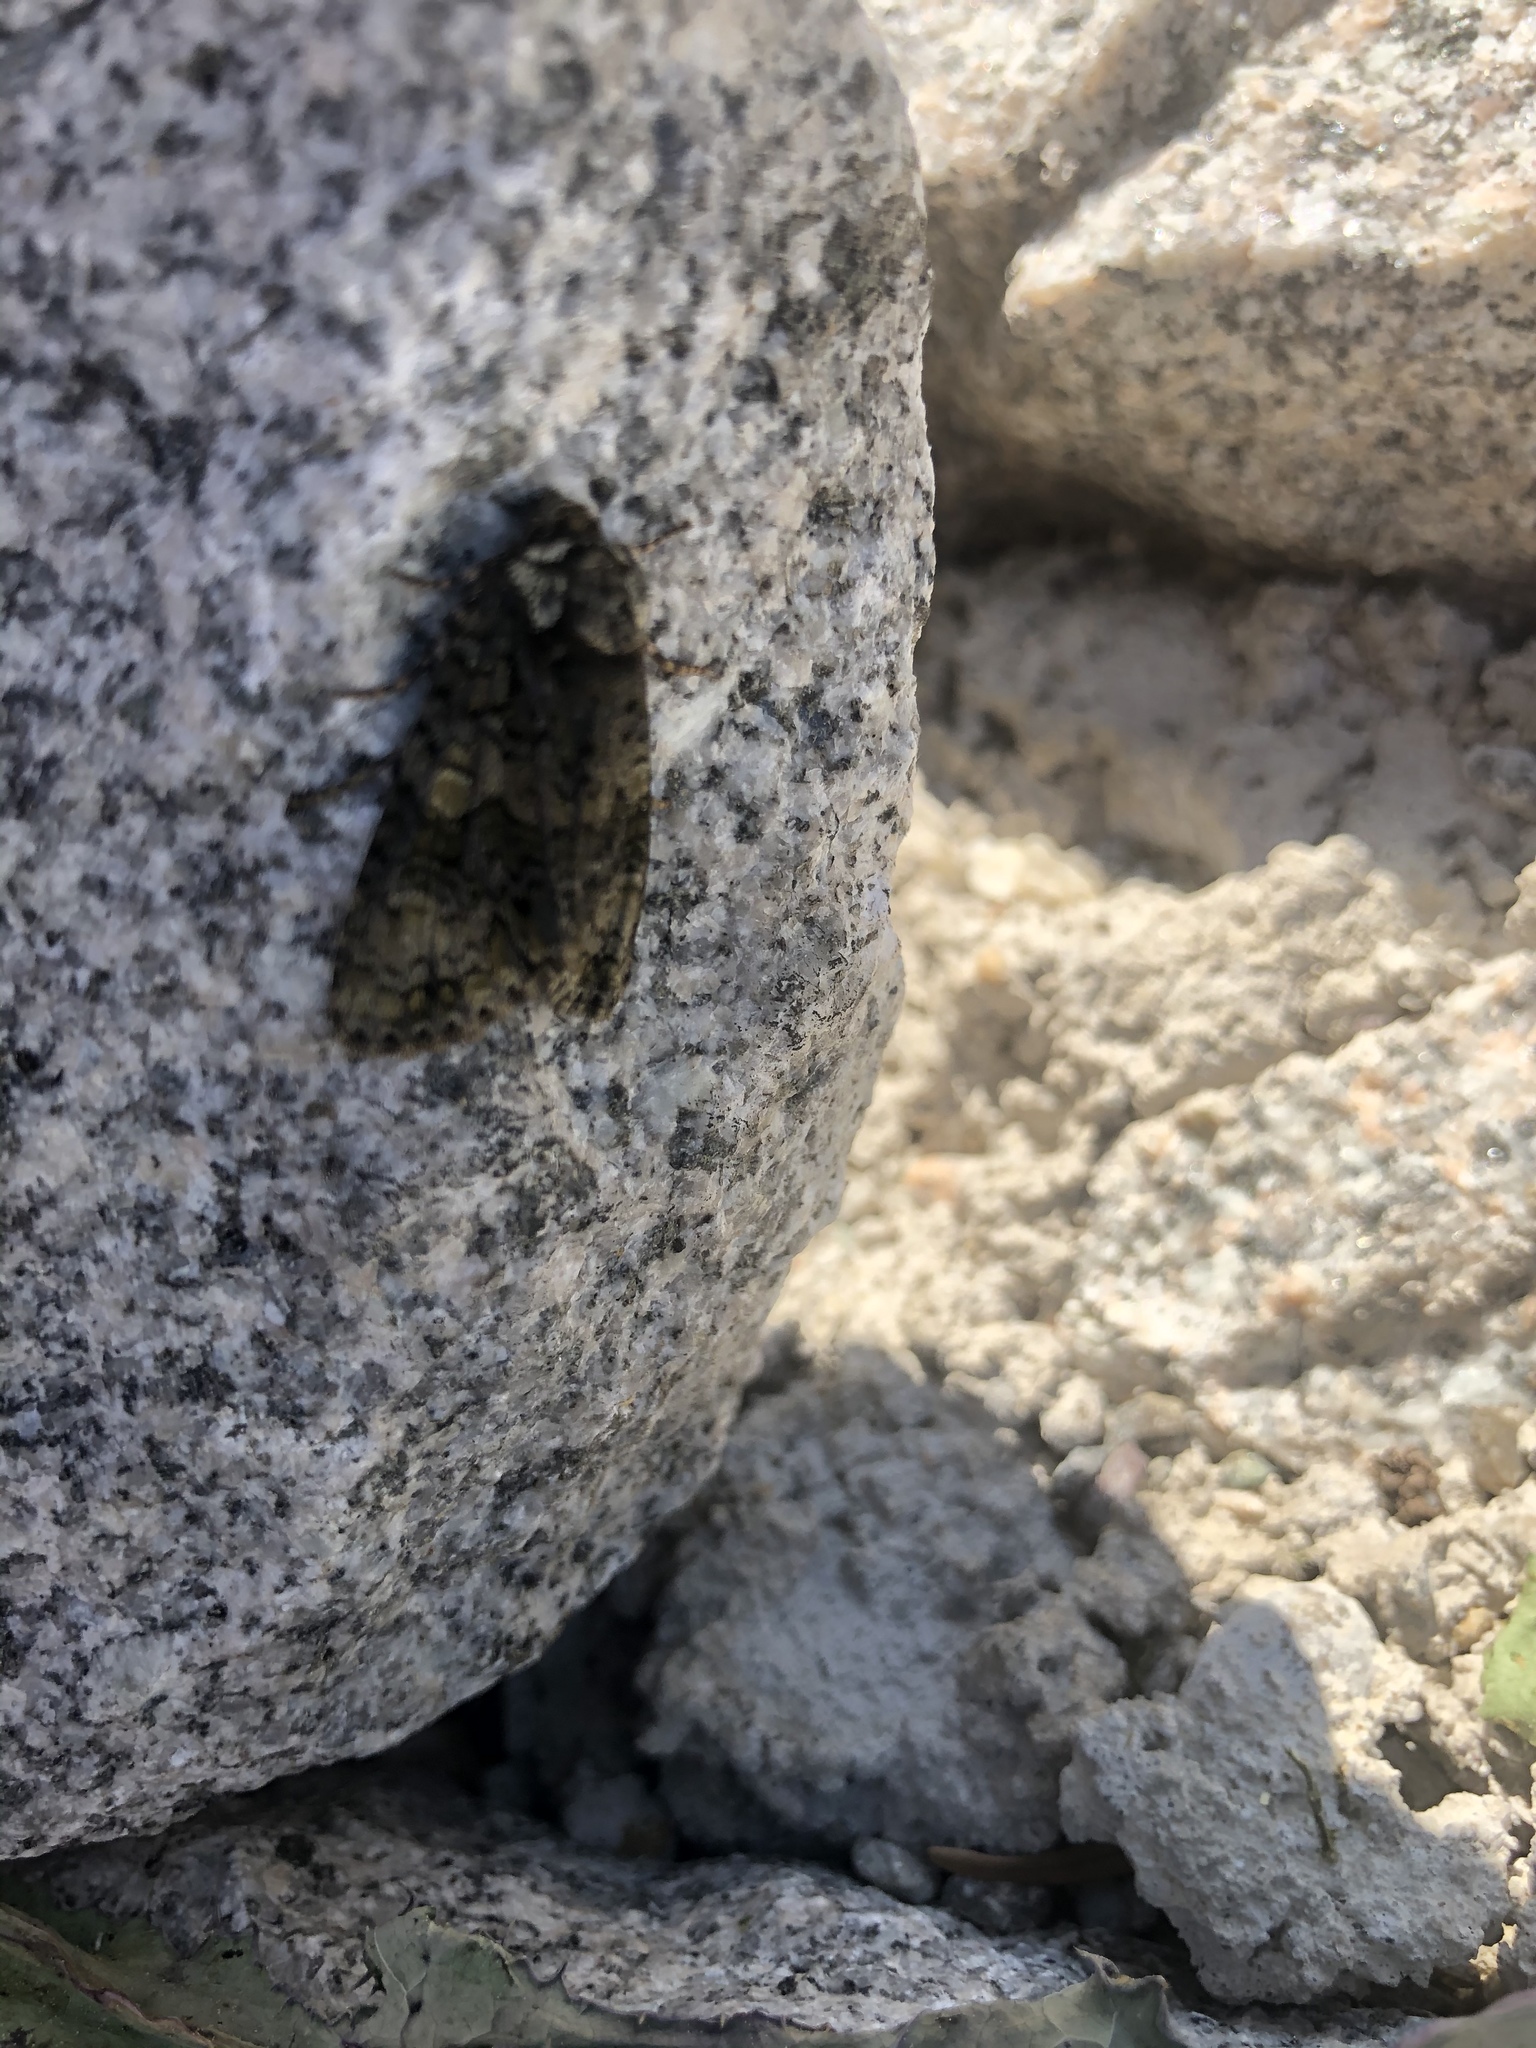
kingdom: Animalia
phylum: Arthropoda
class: Insecta
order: Lepidoptera
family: Noctuidae
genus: Craniophora
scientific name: Craniophora ligustri
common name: Coronet
